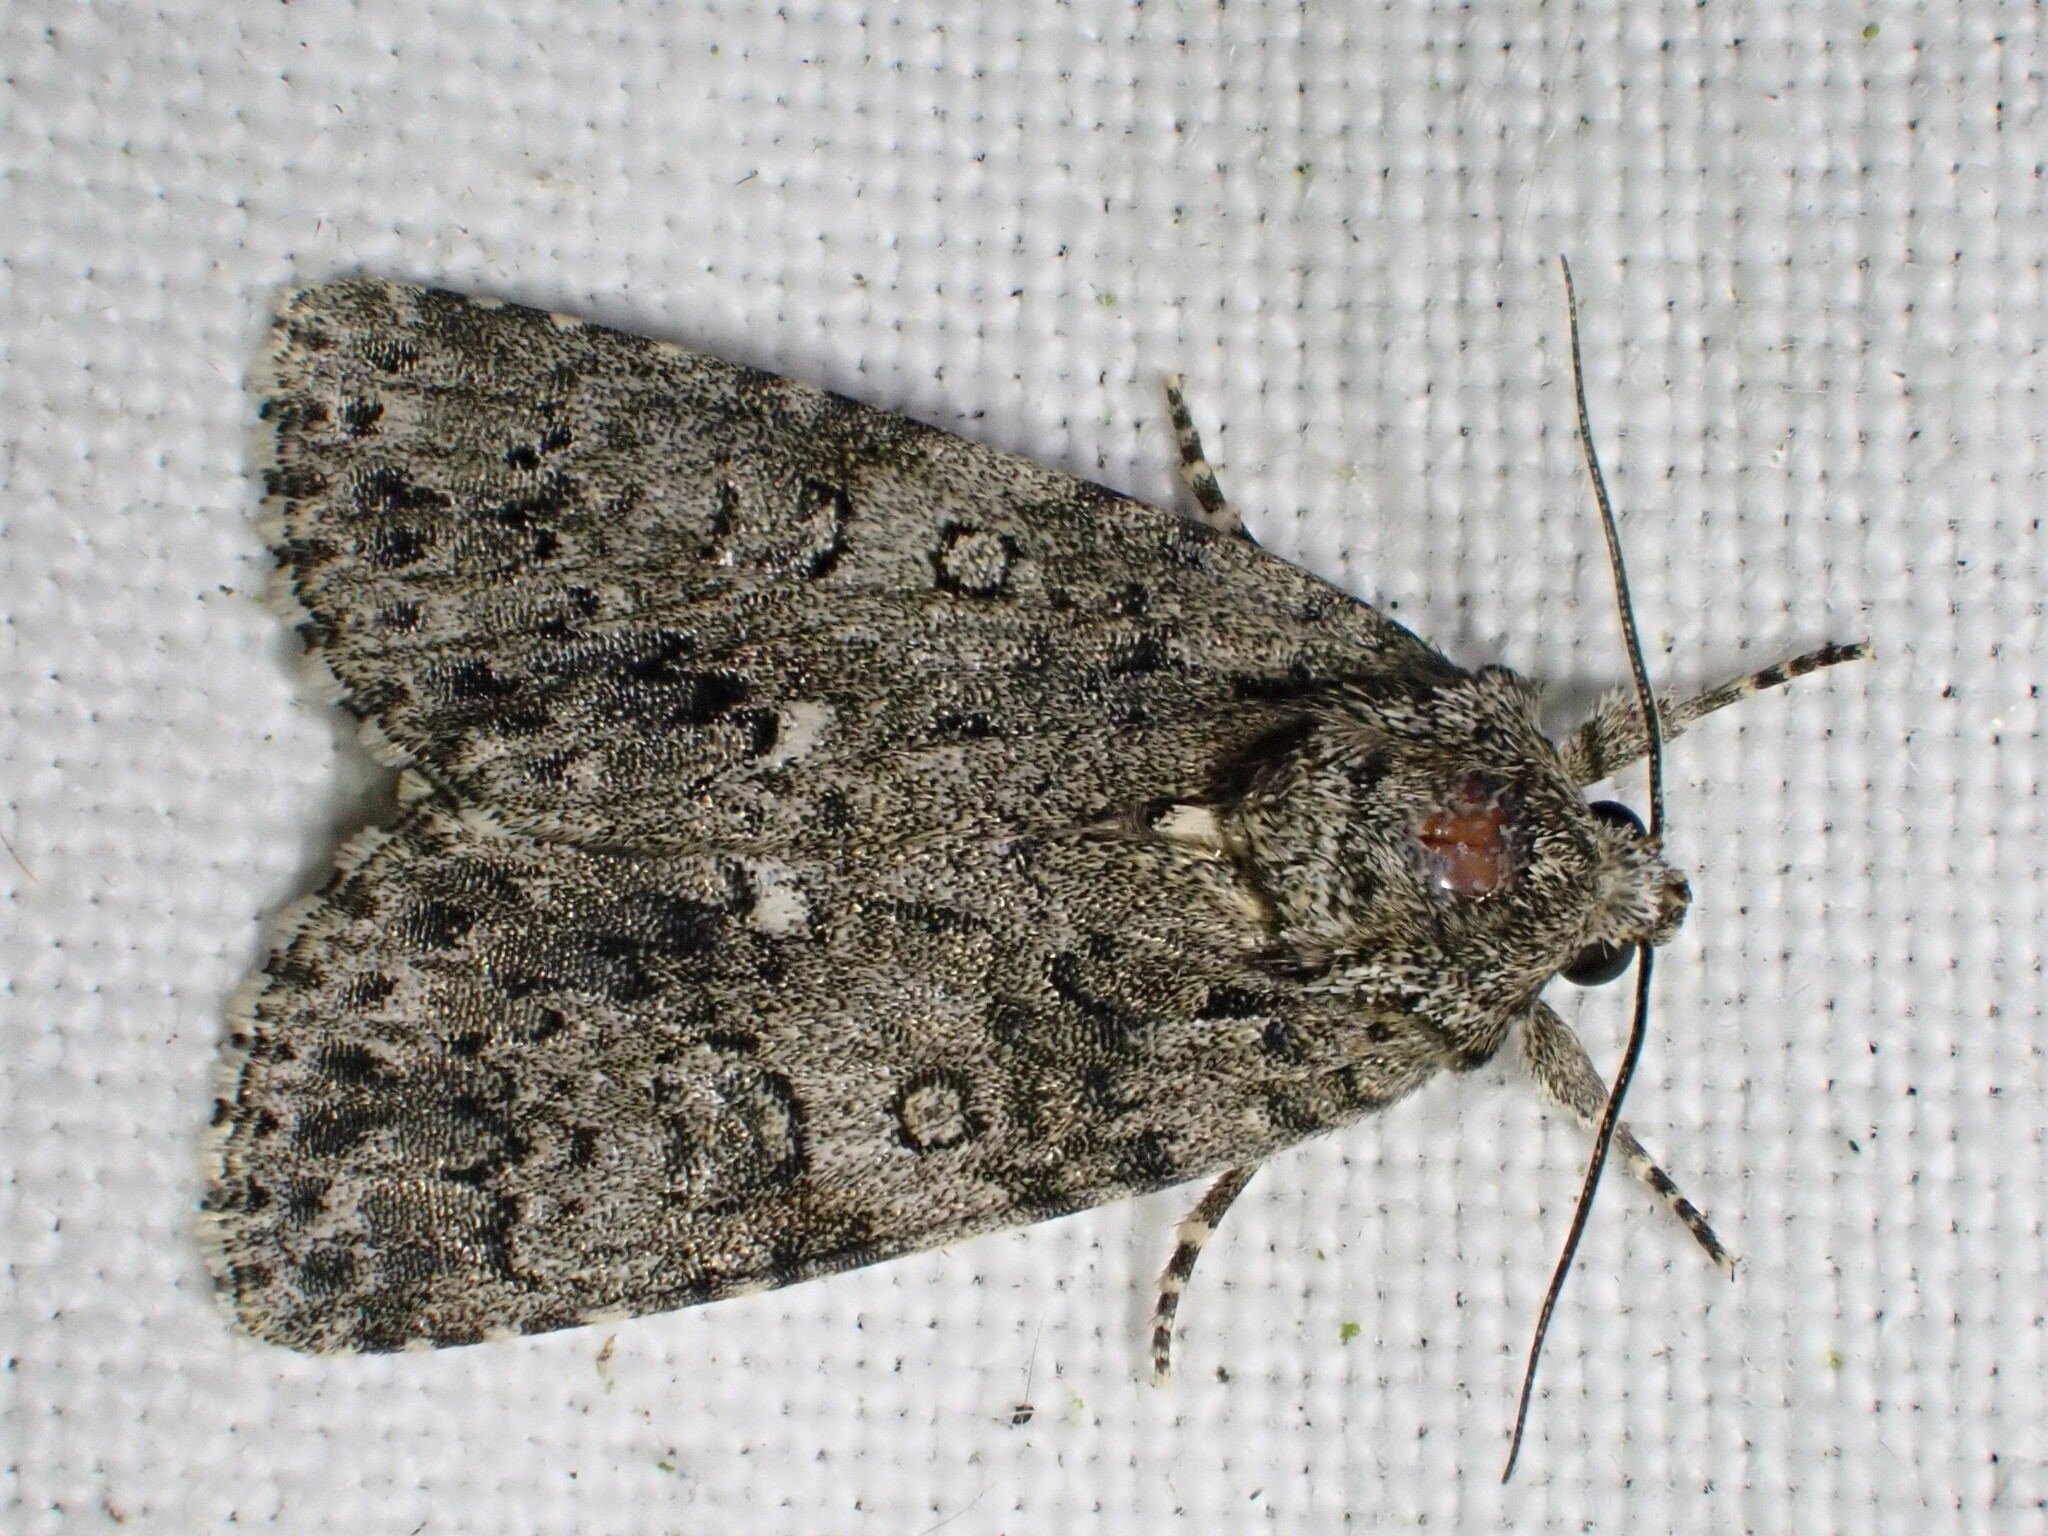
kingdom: Animalia
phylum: Arthropoda
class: Insecta
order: Lepidoptera
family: Noctuidae
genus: Acronicta
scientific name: Acronicta rumicis
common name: Knot grass
